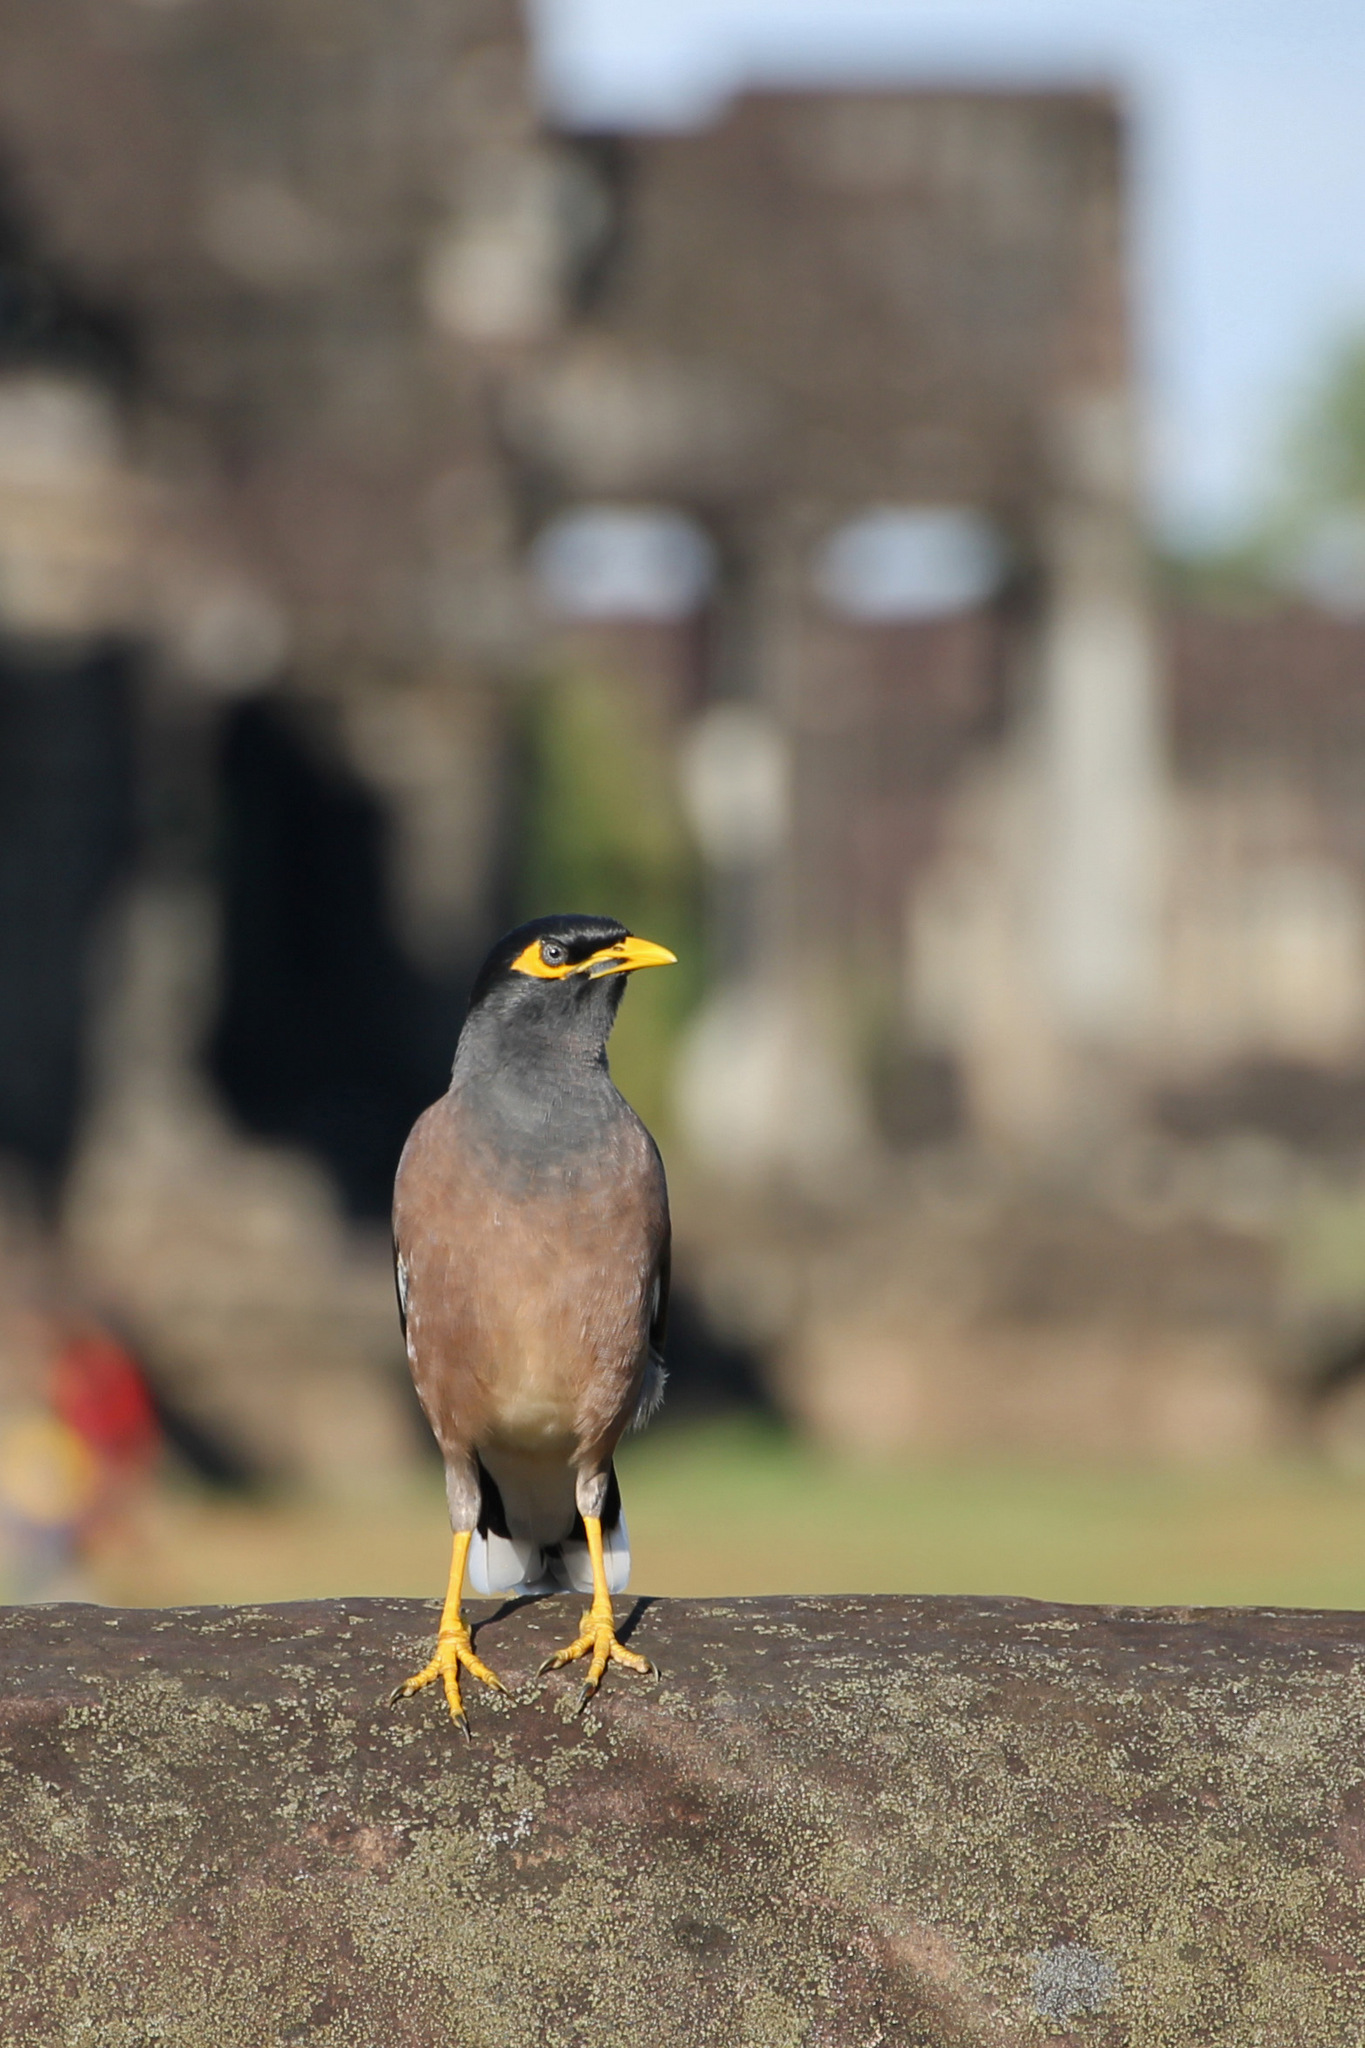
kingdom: Animalia
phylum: Chordata
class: Aves
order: Passeriformes
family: Sturnidae
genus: Acridotheres
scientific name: Acridotheres tristis
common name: Common myna
